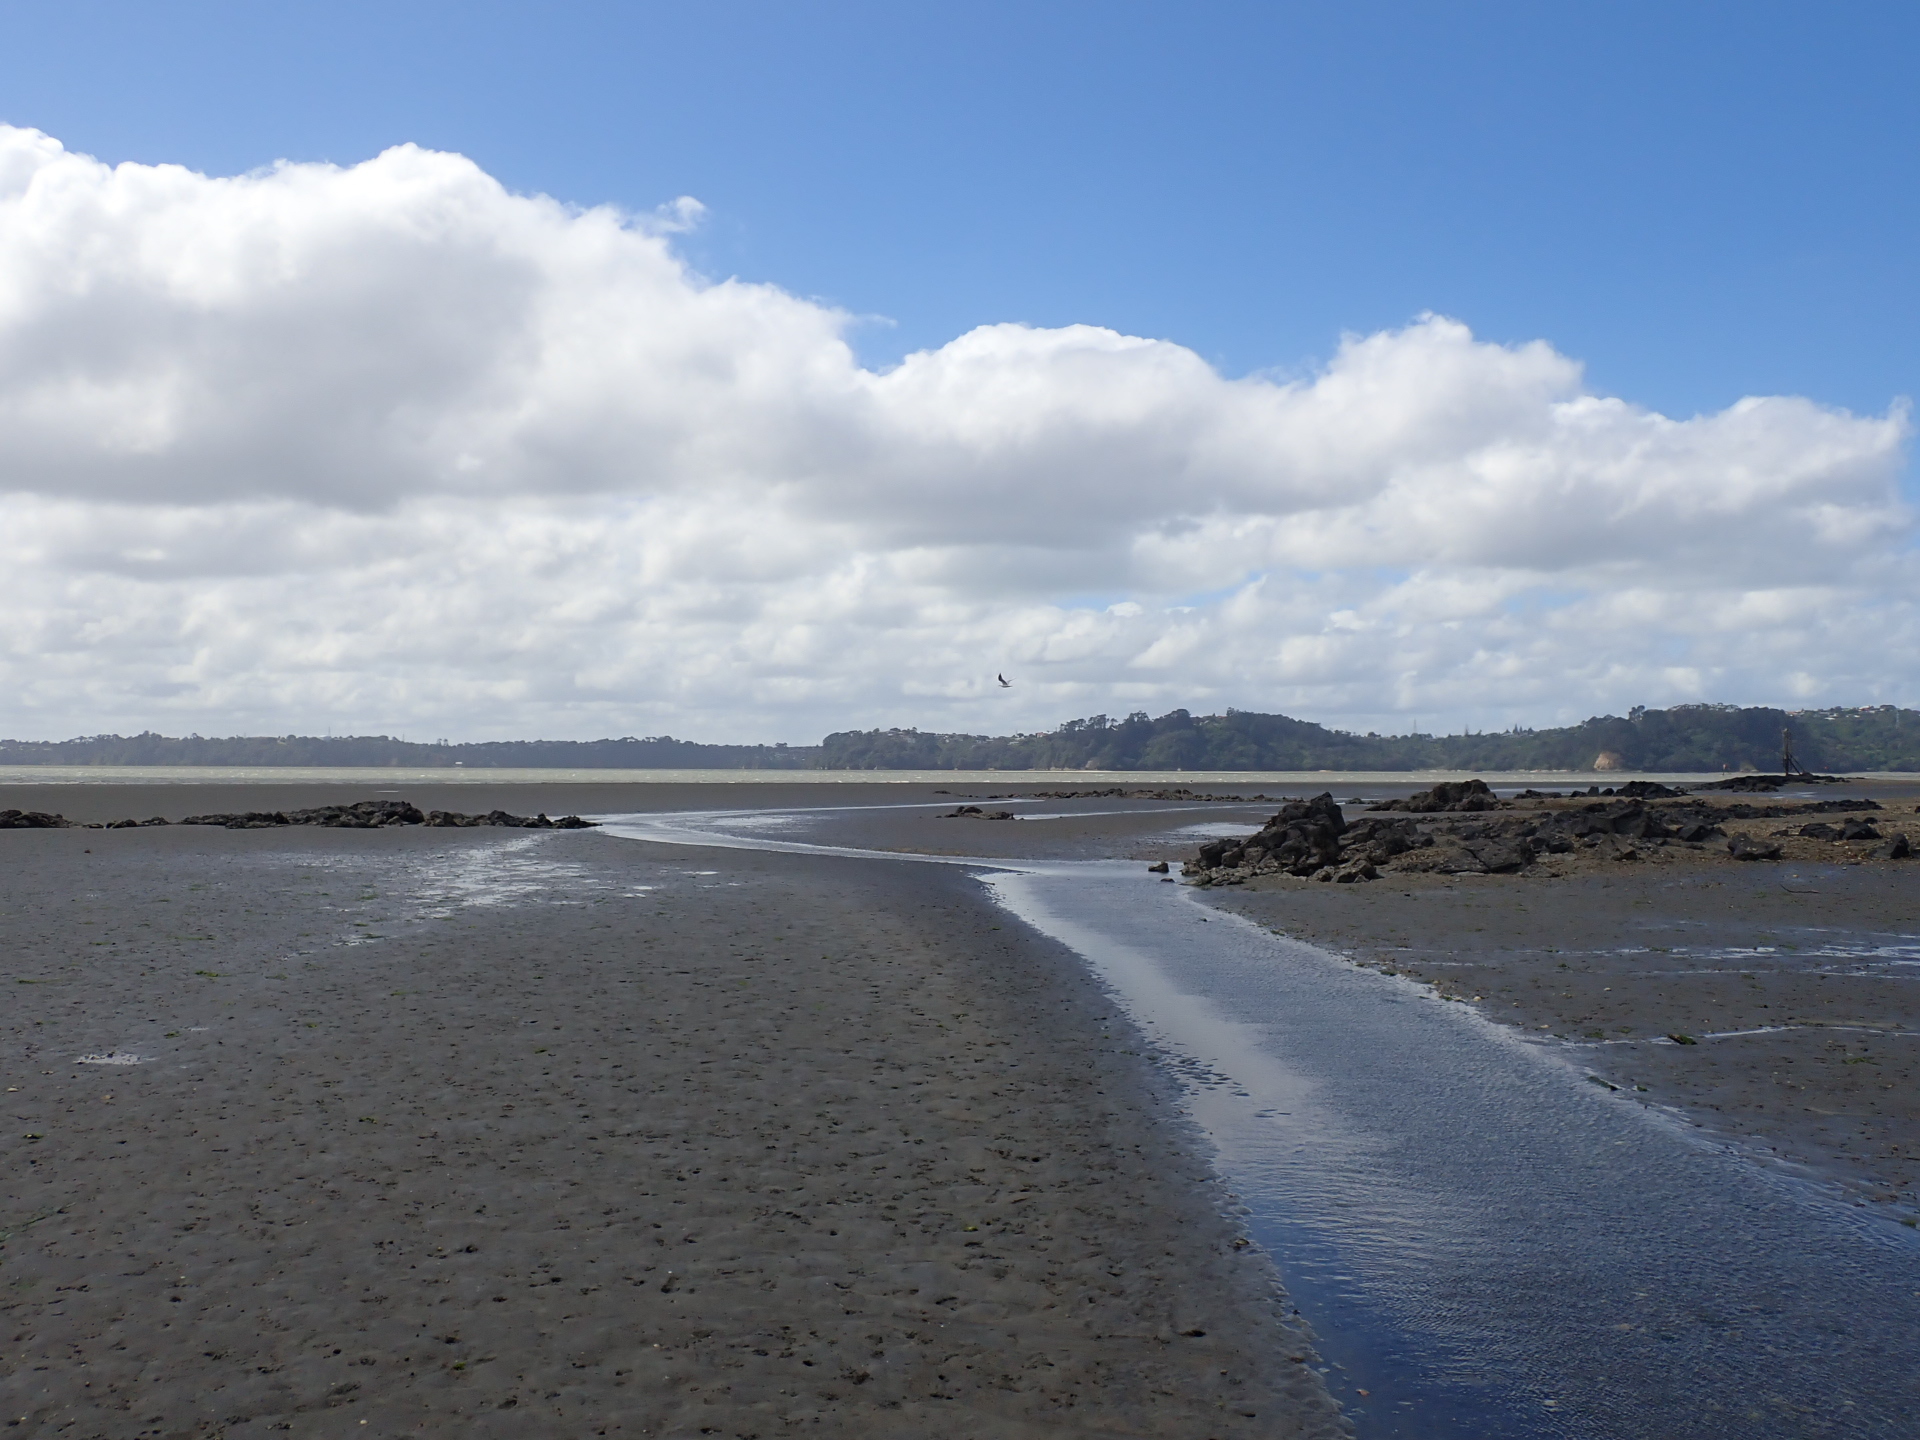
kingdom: Animalia
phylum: Arthropoda
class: Malacostraca
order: Decapoda
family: Macrophthalmidae
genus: Hemiplax
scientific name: Hemiplax hirtipes
